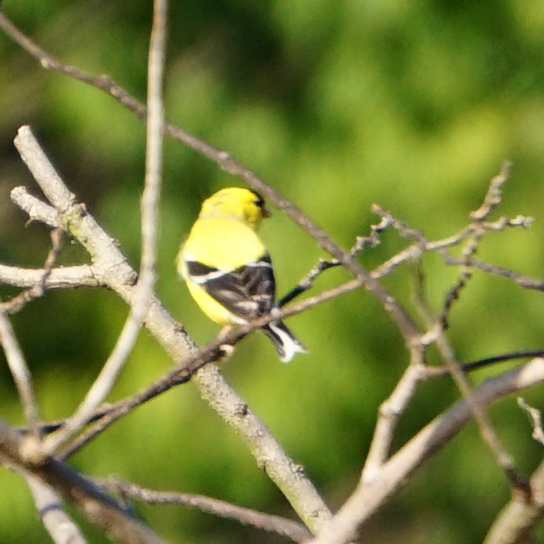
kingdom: Animalia
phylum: Chordata
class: Aves
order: Passeriformes
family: Fringillidae
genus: Spinus
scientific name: Spinus tristis
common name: American goldfinch
